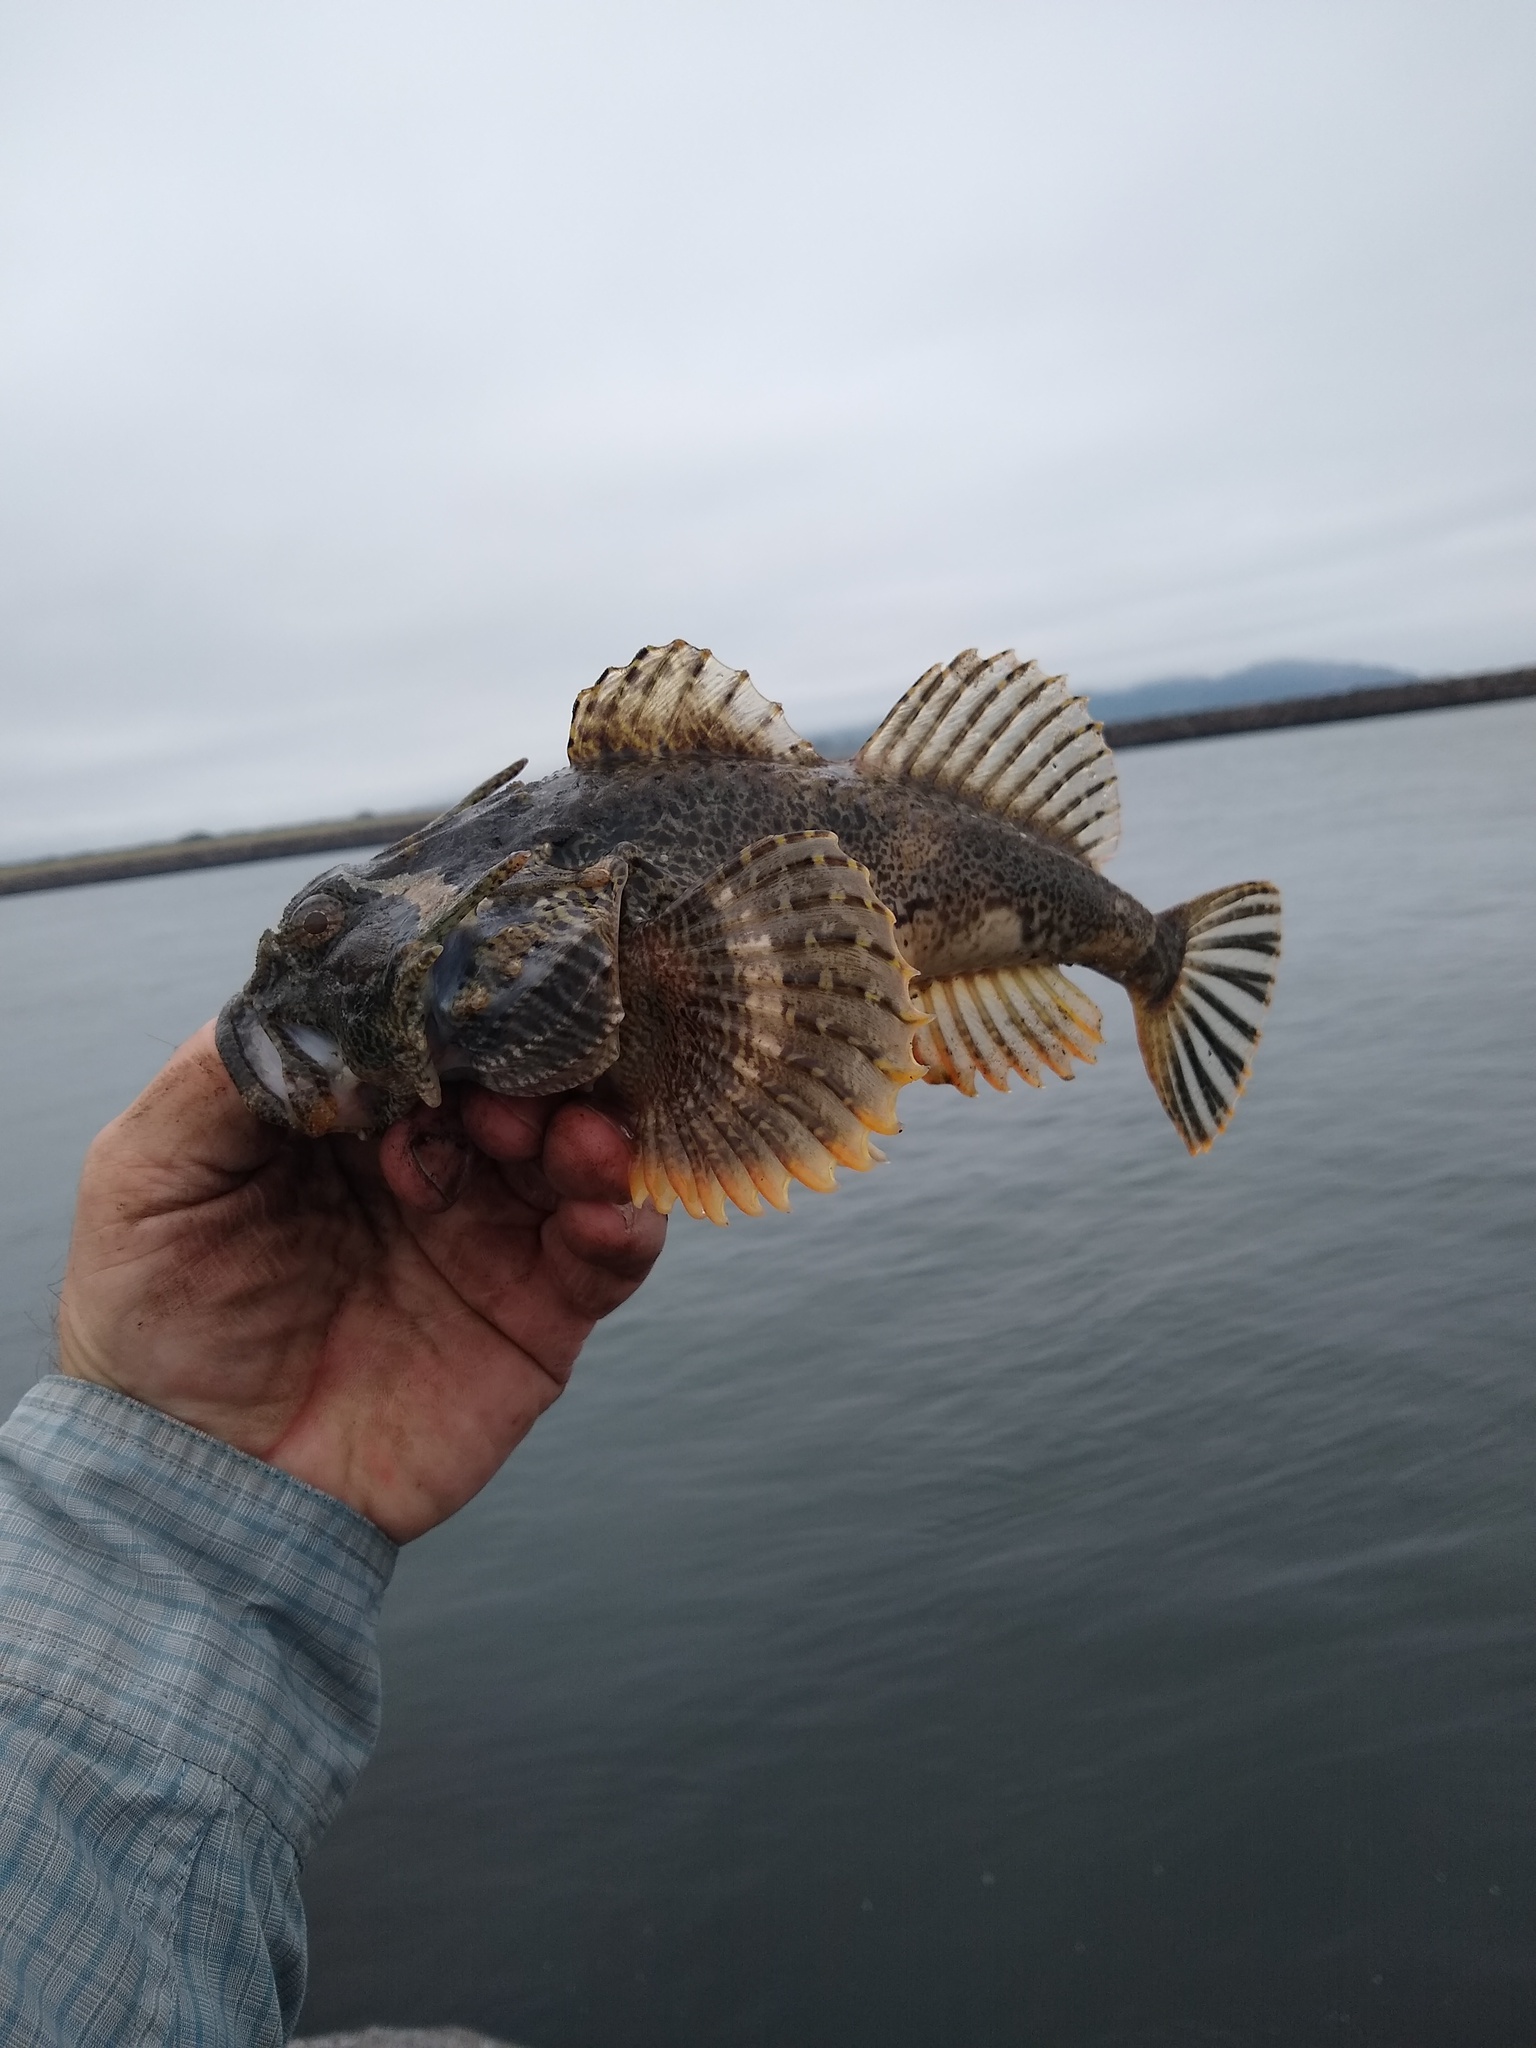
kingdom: Animalia
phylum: Chordata
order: Scorpaeniformes
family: Cottidae
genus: Enophrys
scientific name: Enophrys bison
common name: Buffalo sculpin
